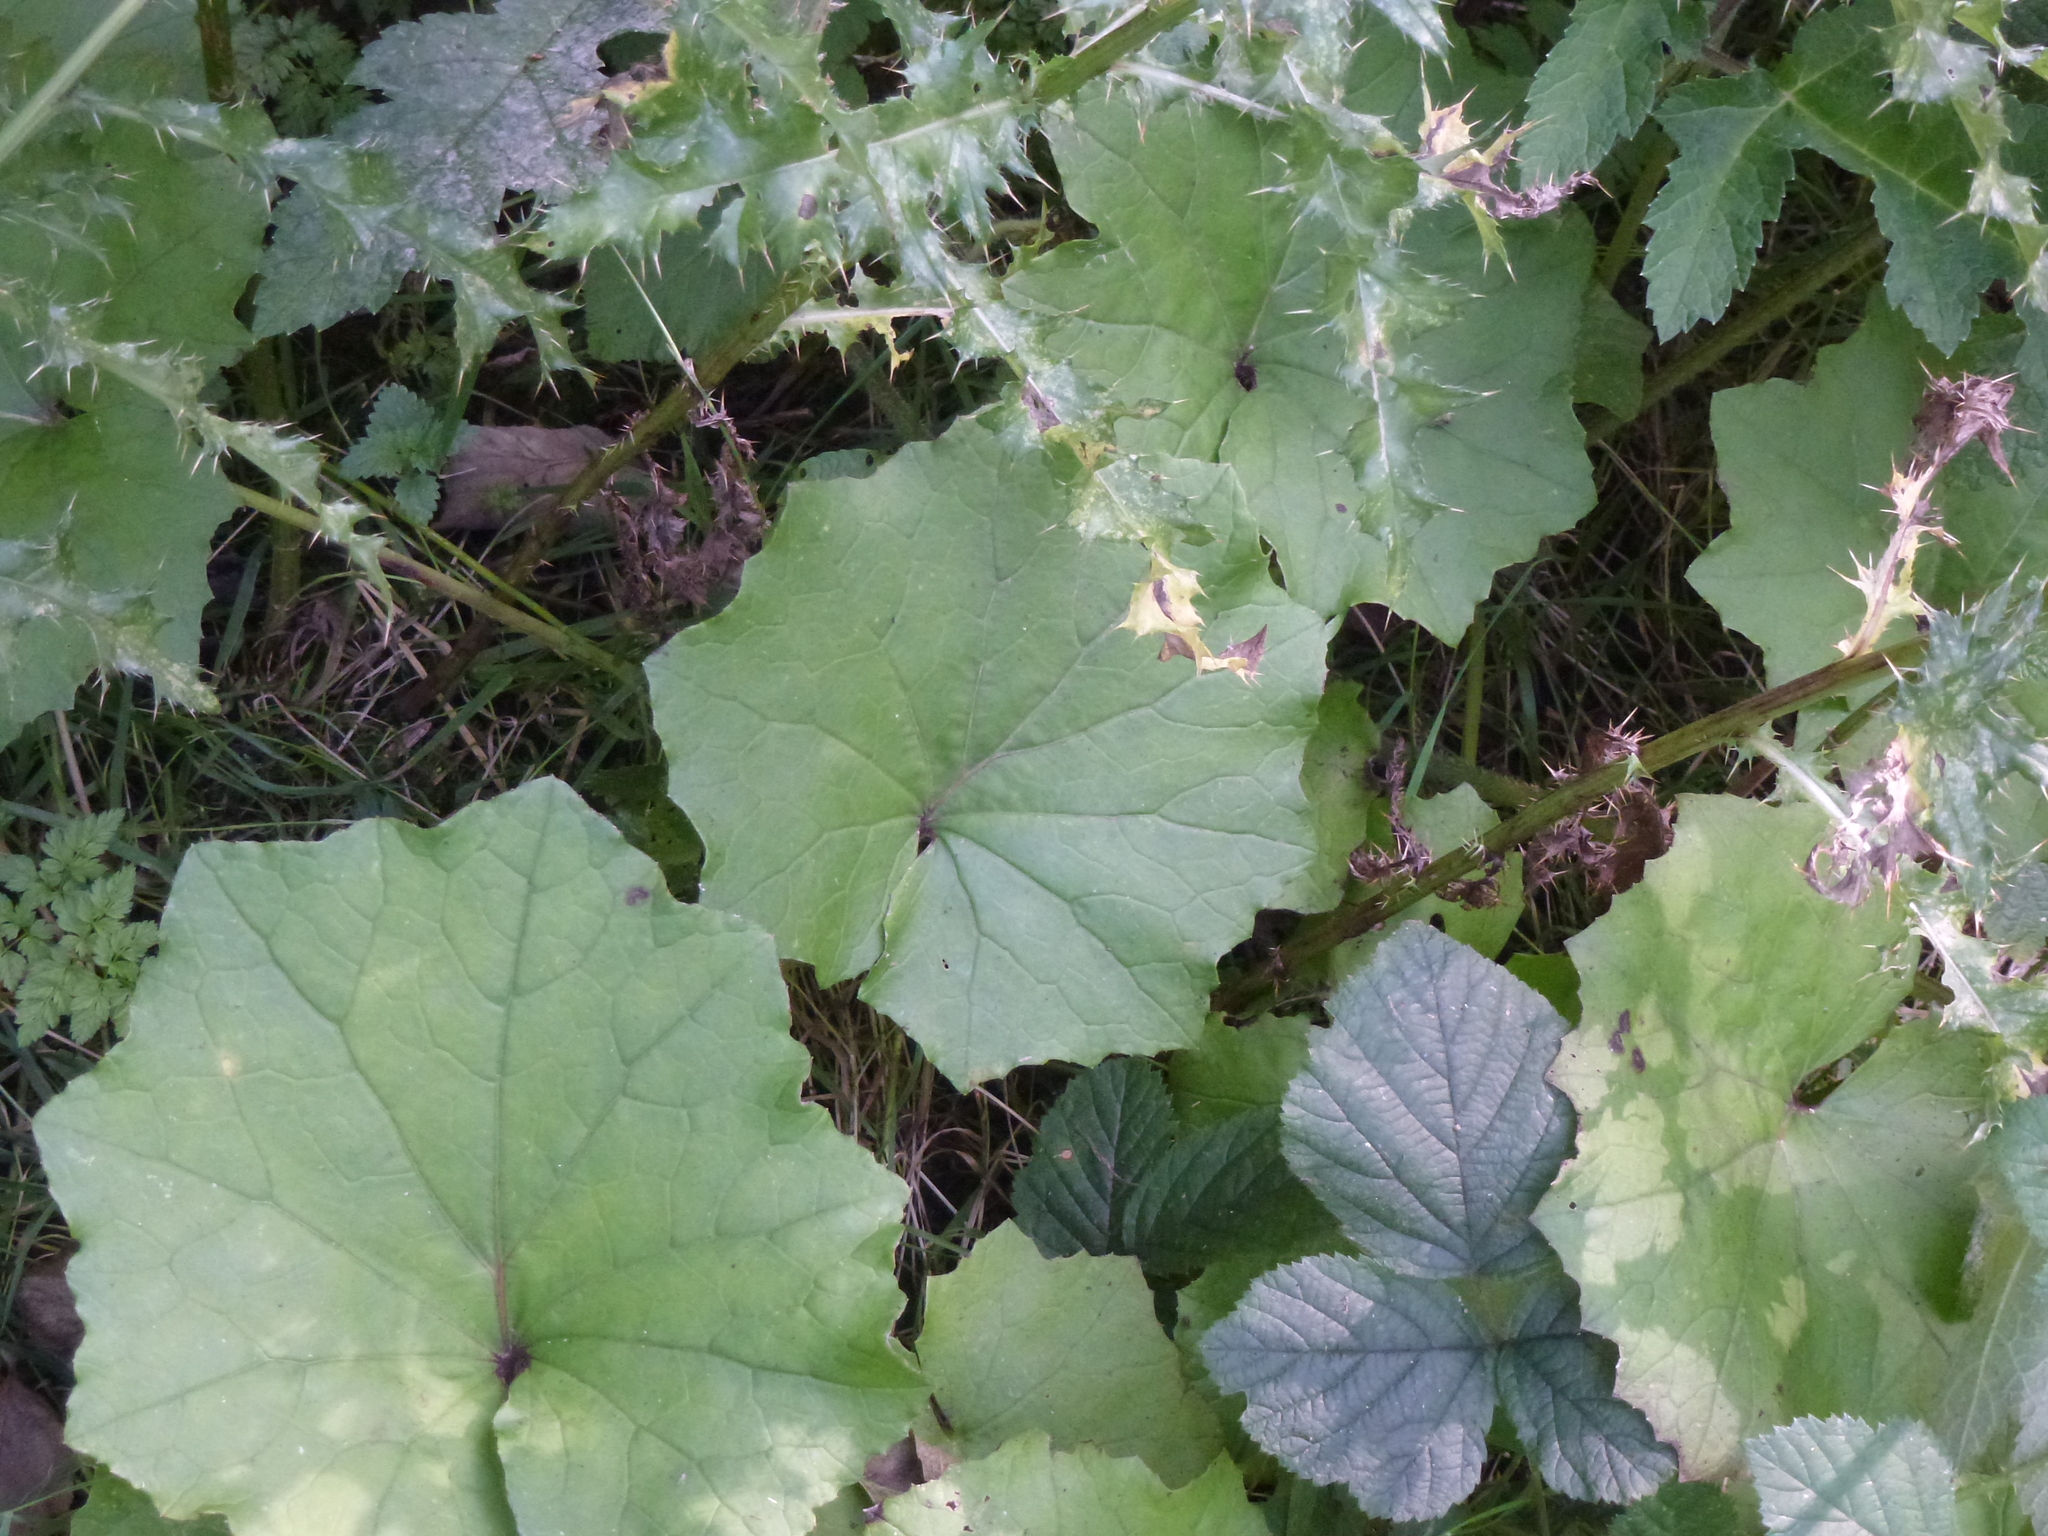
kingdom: Plantae
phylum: Tracheophyta
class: Magnoliopsida
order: Asterales
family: Asteraceae
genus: Tussilago
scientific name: Tussilago farfara
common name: Coltsfoot
